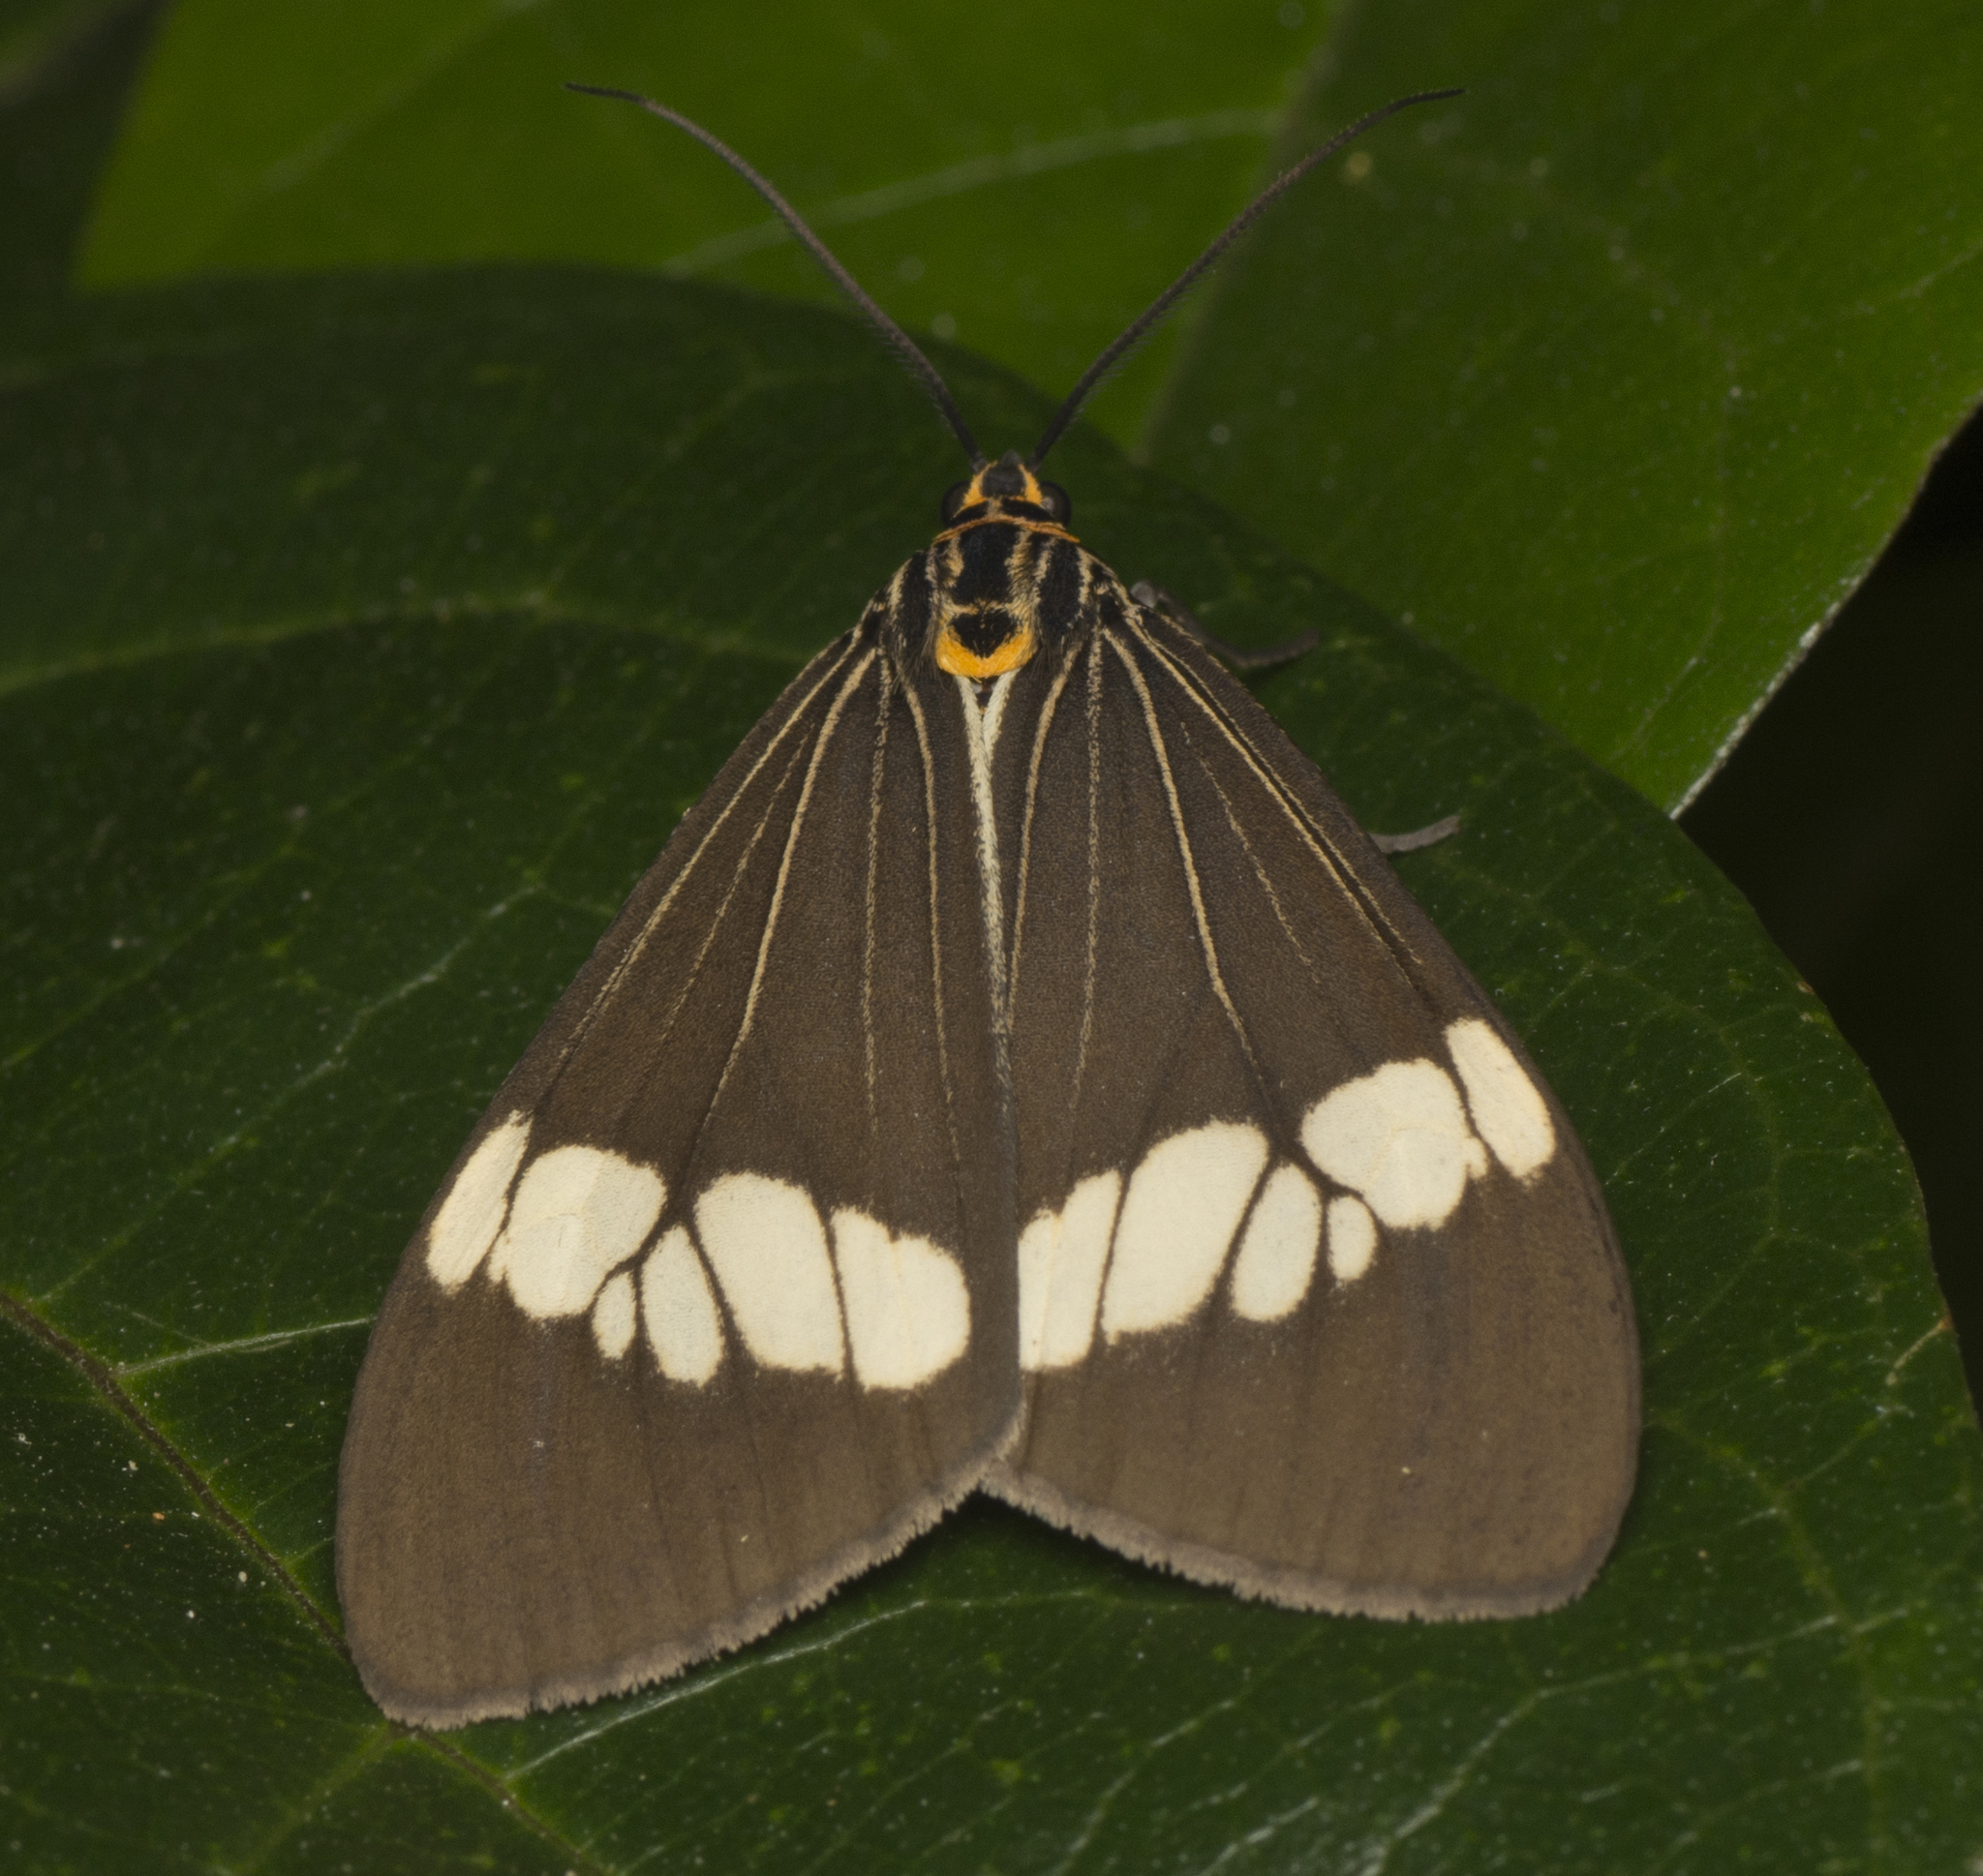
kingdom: Animalia
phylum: Arthropoda
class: Insecta
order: Lepidoptera
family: Erebidae
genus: Nyctemera
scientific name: Nyctemera baulus
